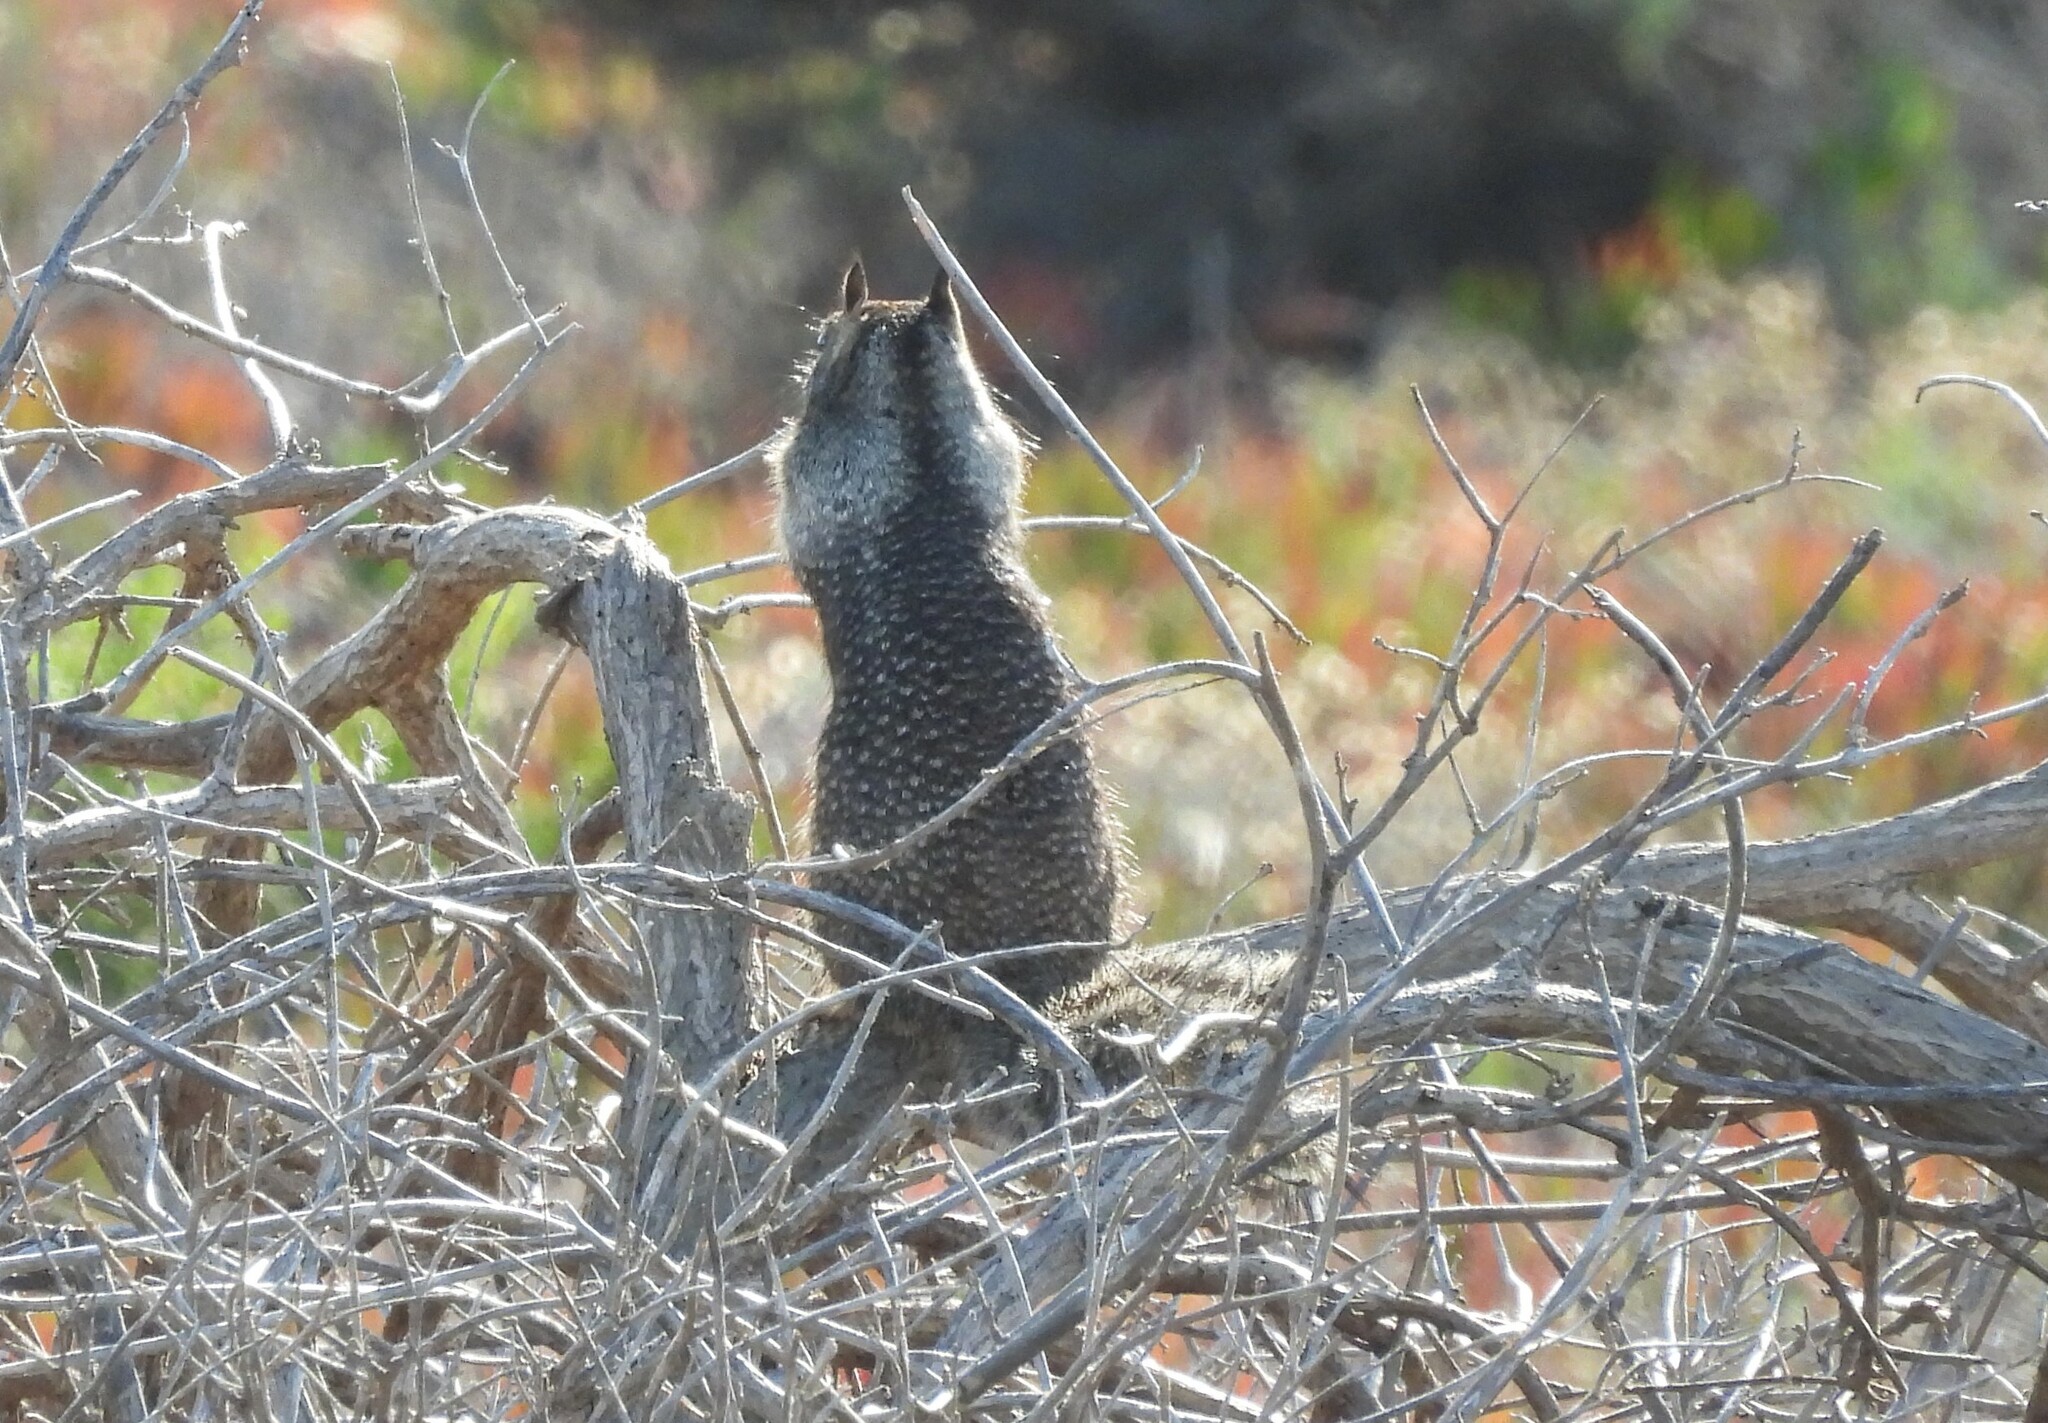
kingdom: Animalia
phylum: Chordata
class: Mammalia
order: Rodentia
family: Sciuridae
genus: Otospermophilus
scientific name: Otospermophilus beecheyi
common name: California ground squirrel
